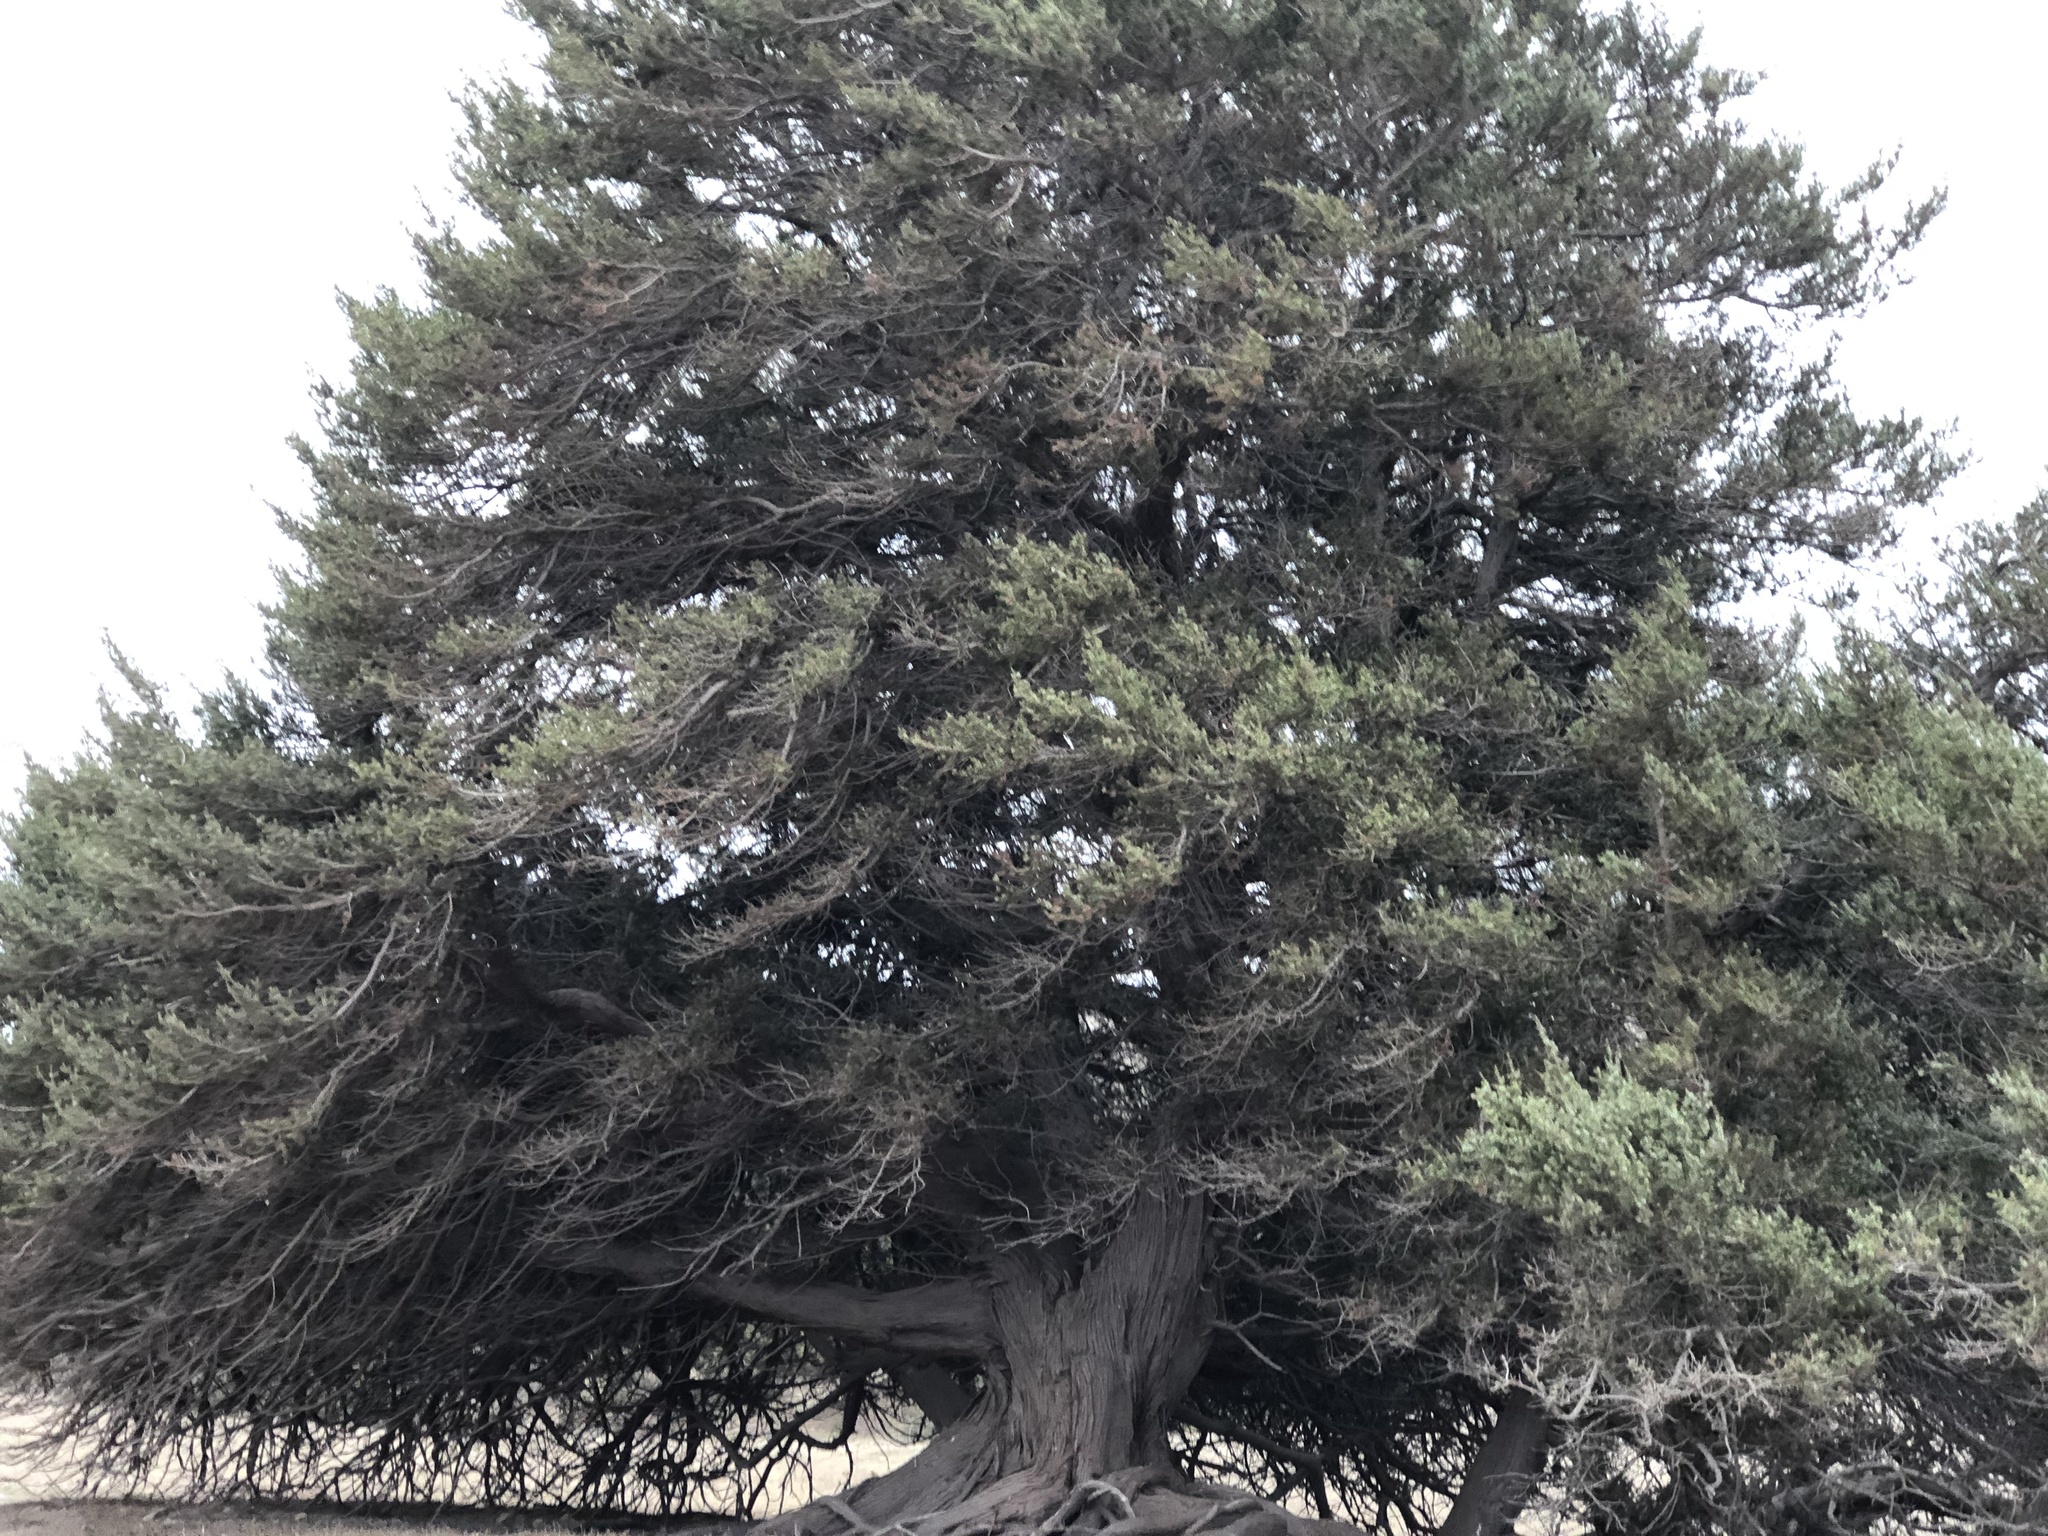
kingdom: Plantae
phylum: Tracheophyta
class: Pinopsida
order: Pinales
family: Cupressaceae
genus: Juniperus
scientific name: Juniperus oxycedrus
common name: Prickly juniper
